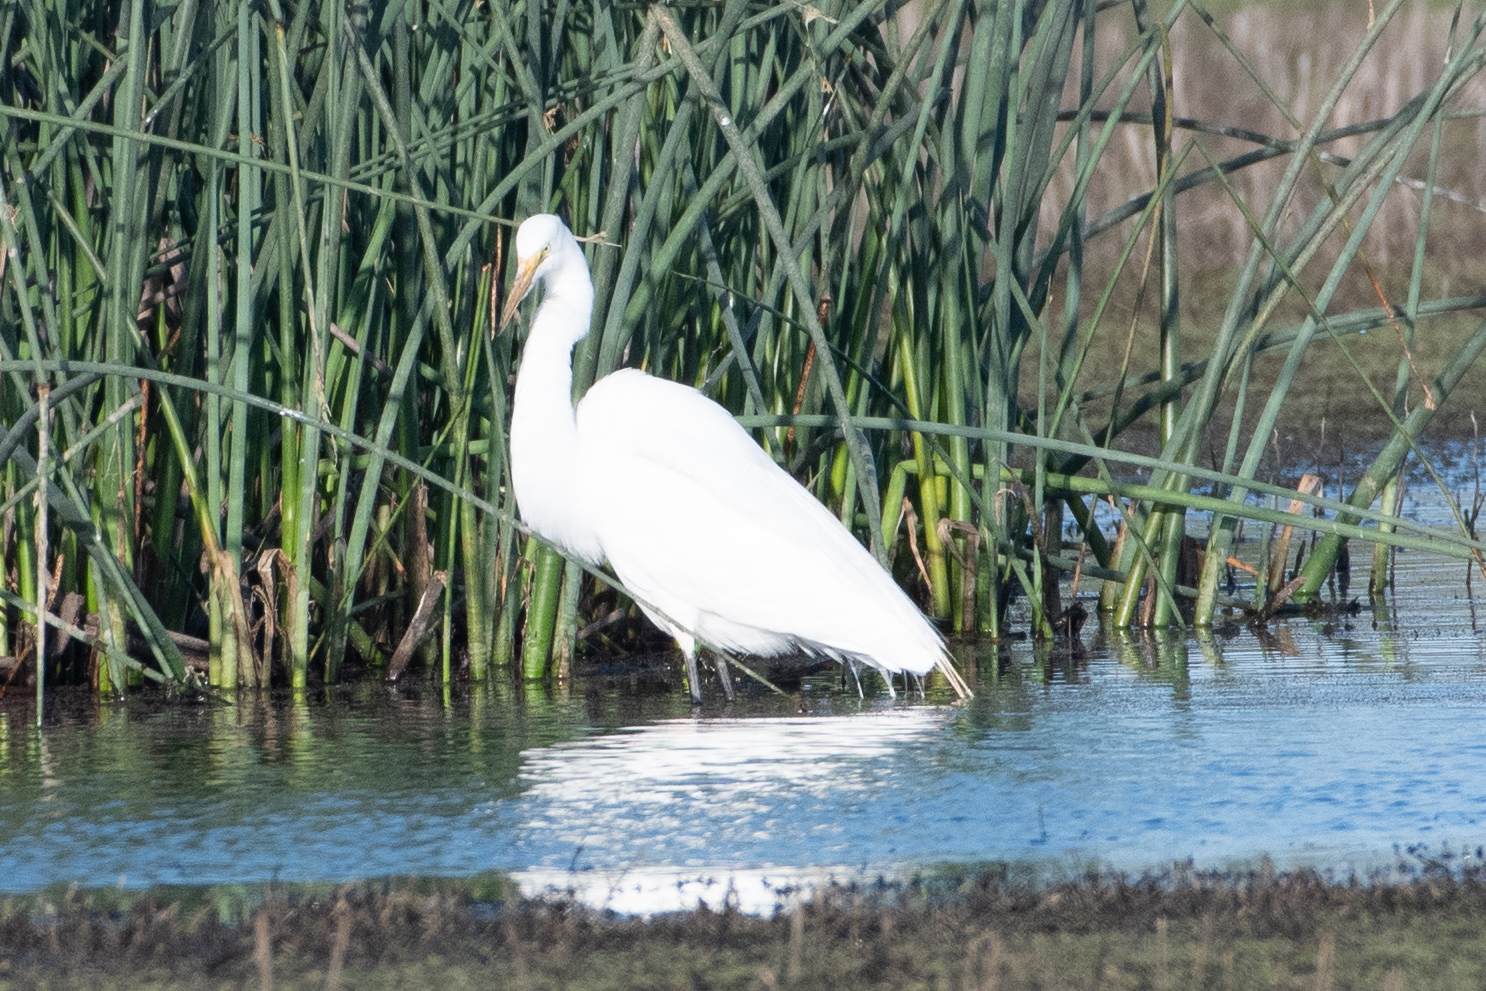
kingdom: Animalia
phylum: Chordata
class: Aves
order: Pelecaniformes
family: Ardeidae
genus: Ardea
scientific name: Ardea alba
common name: Great egret
